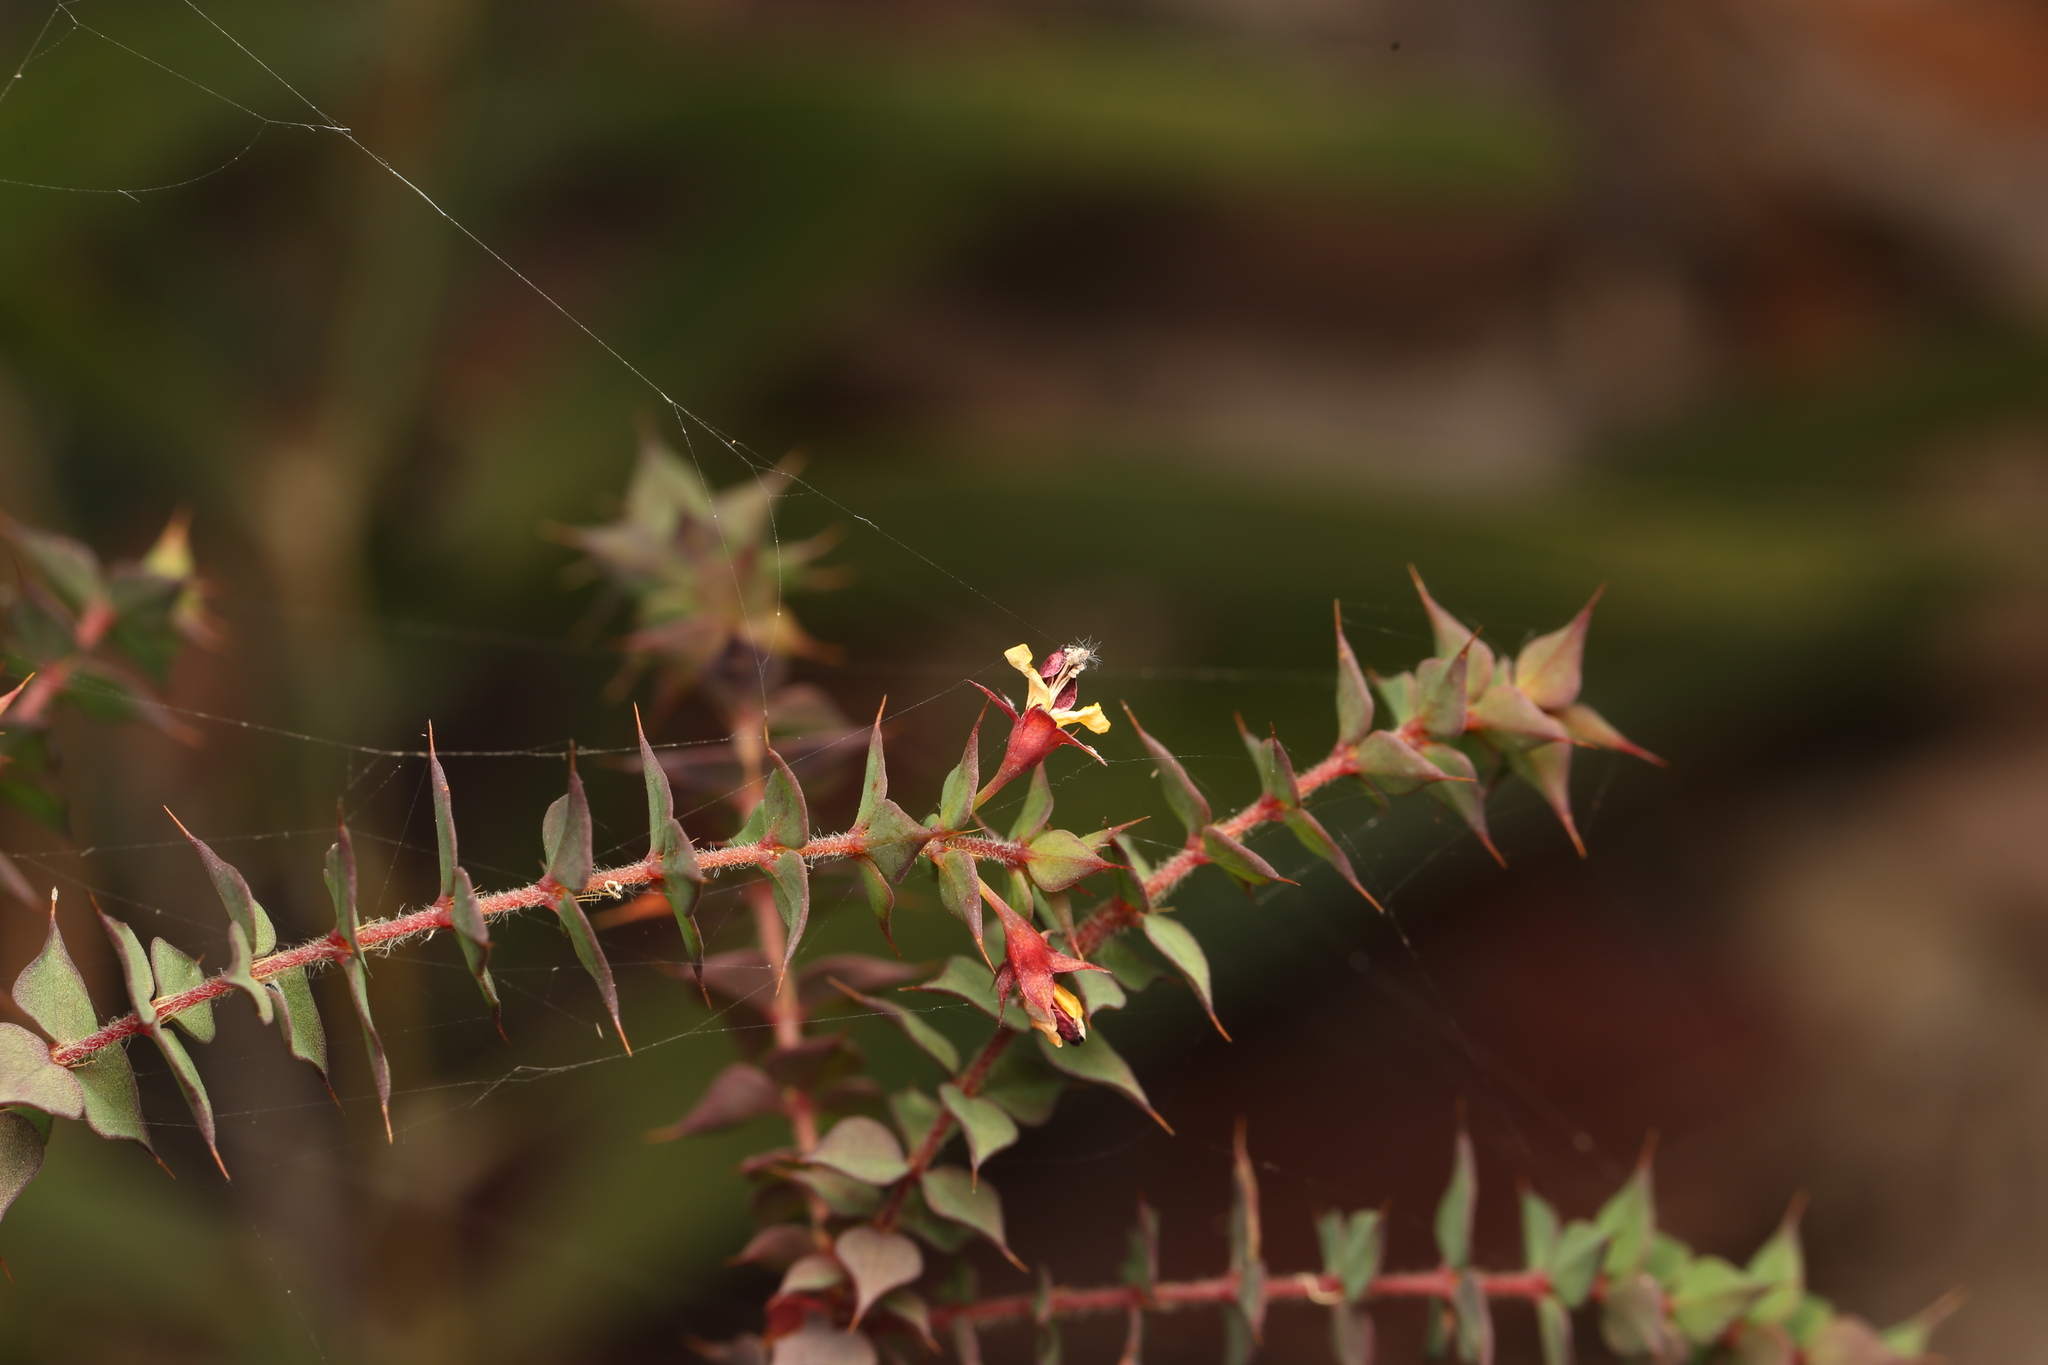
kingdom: Plantae
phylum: Tracheophyta
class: Magnoliopsida
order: Fabales
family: Fabaceae
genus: Pultenaea
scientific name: Pultenaea spinosa
